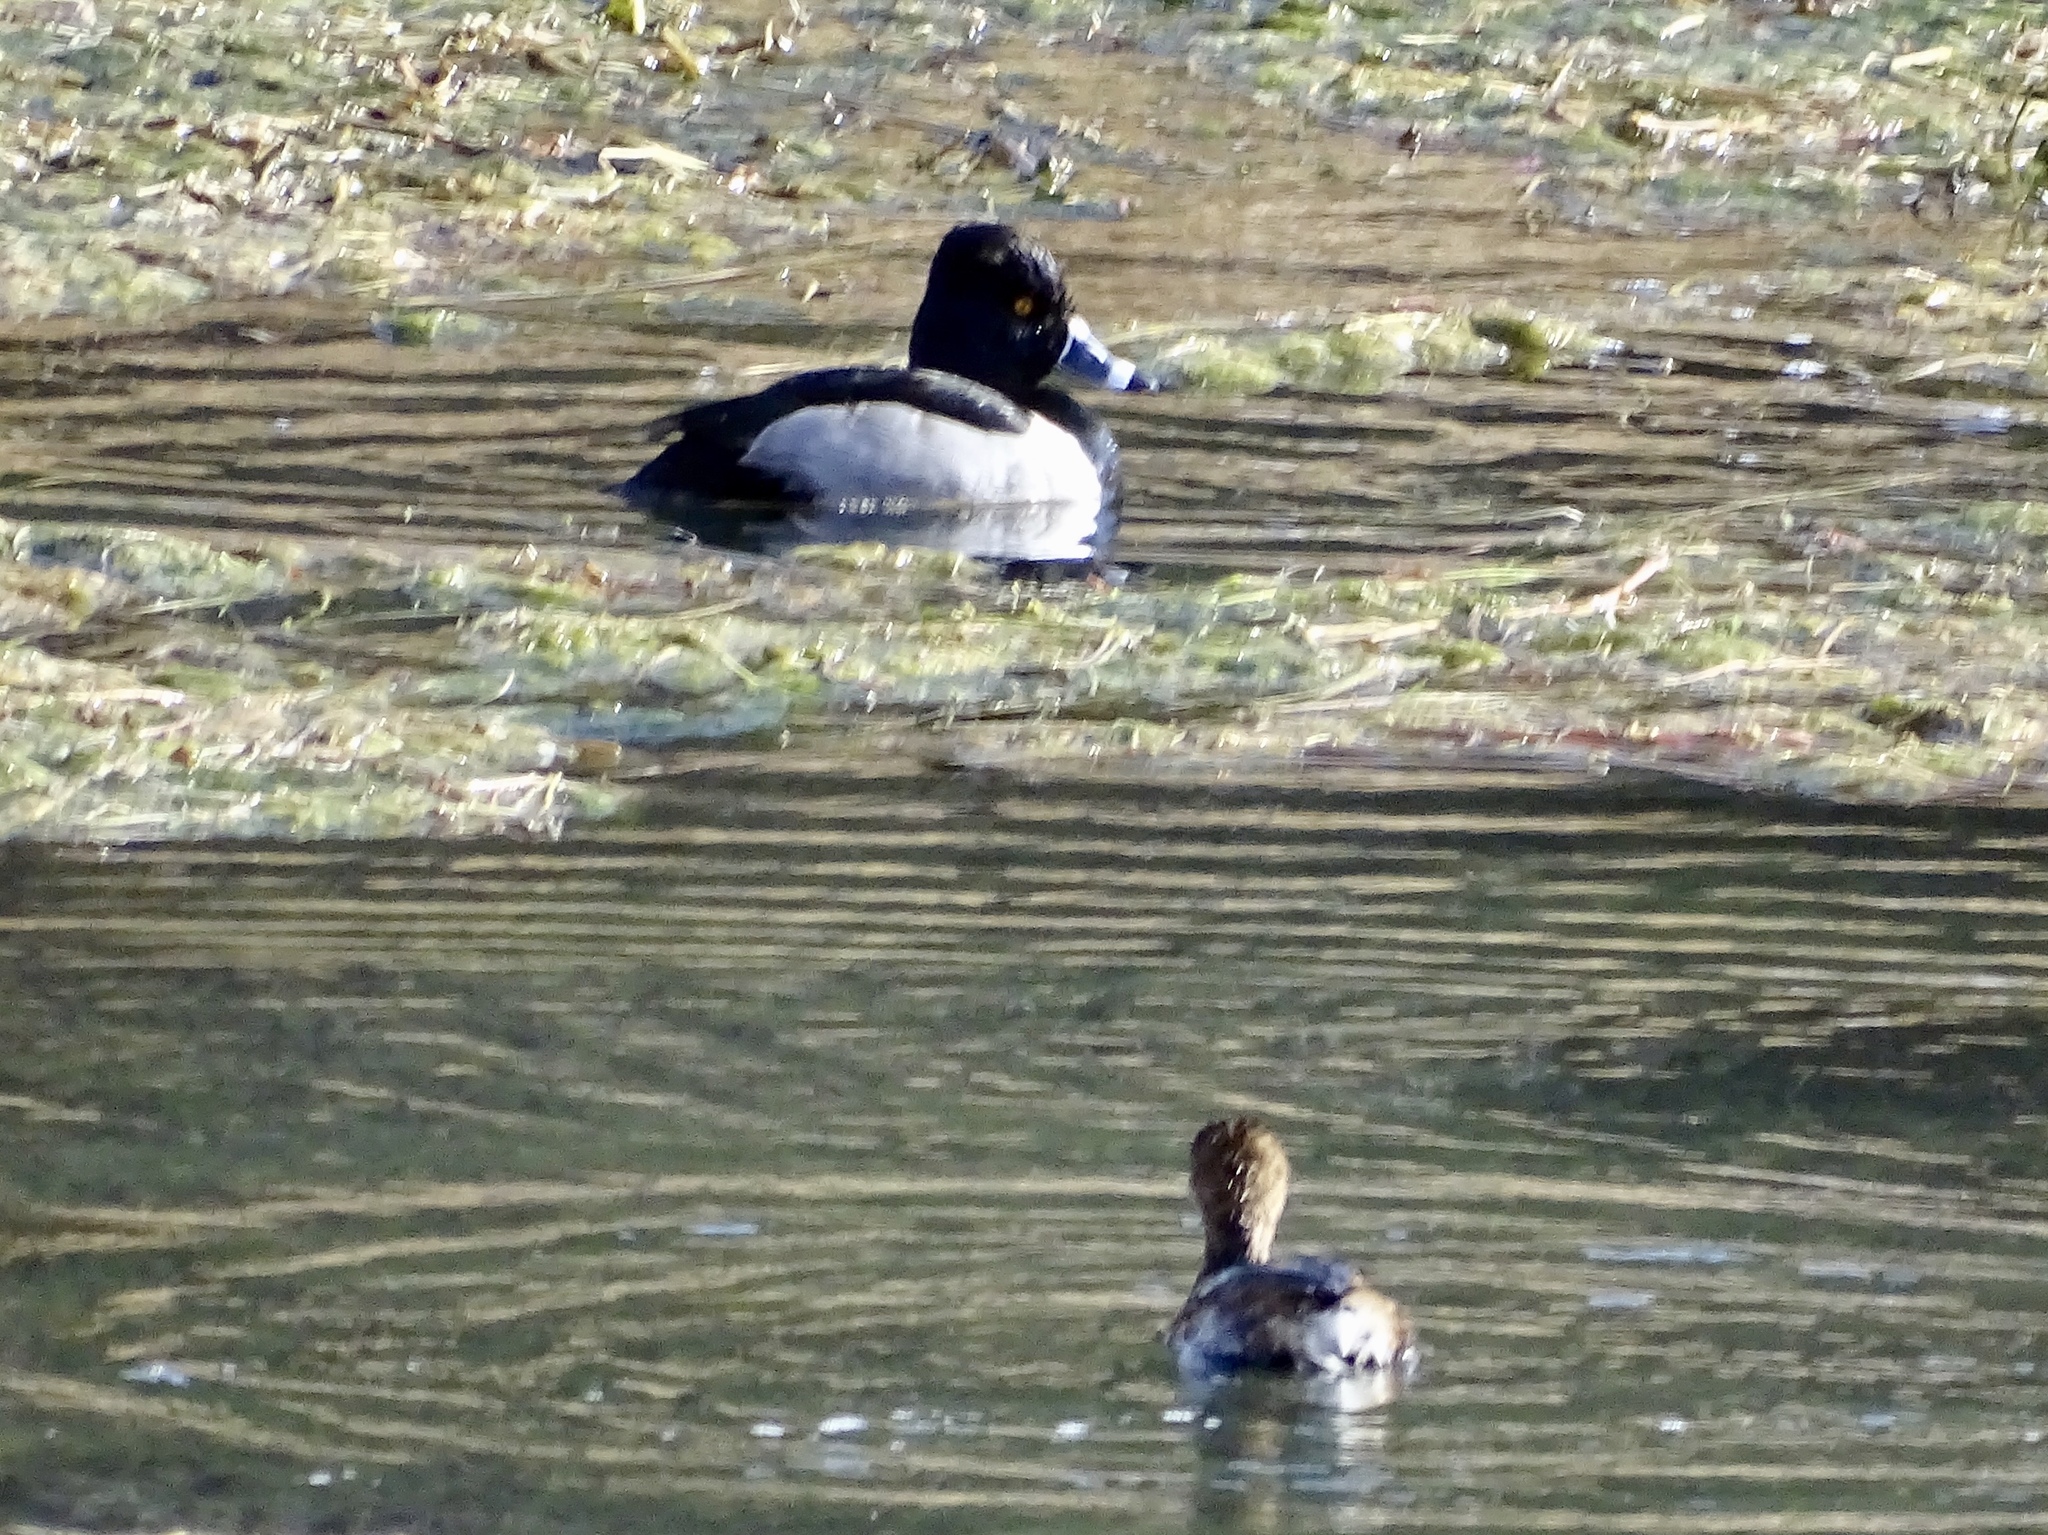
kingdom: Animalia
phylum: Chordata
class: Aves
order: Anseriformes
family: Anatidae
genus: Aythya
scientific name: Aythya collaris
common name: Ring-necked duck
